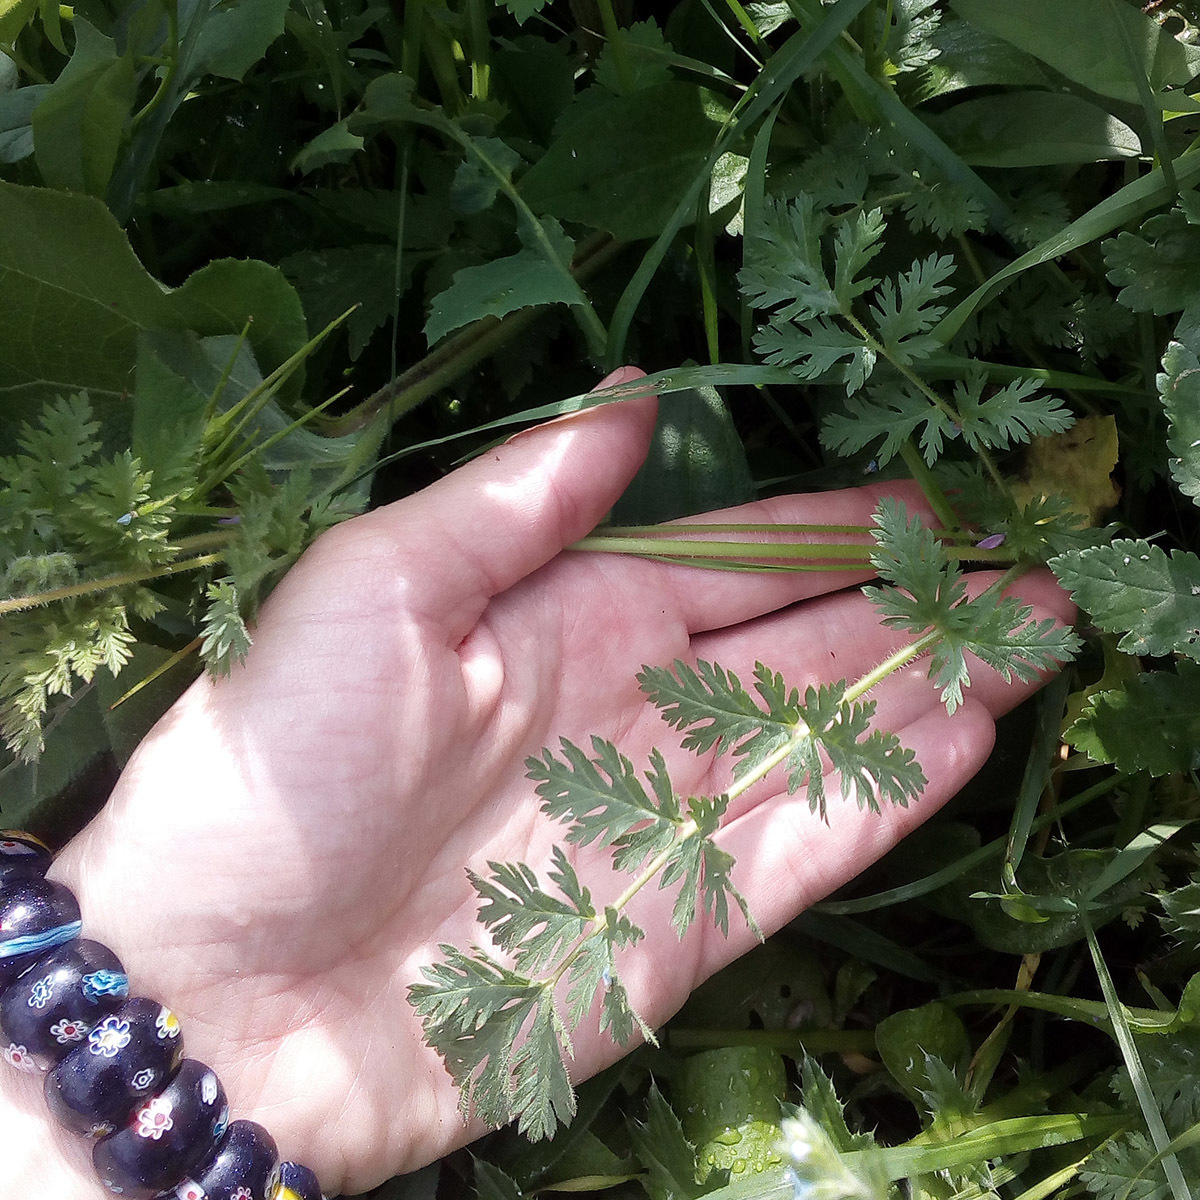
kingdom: Plantae
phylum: Tracheophyta
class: Magnoliopsida
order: Geraniales
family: Geraniaceae
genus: Erodium
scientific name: Erodium cicutarium
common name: Common stork's-bill
